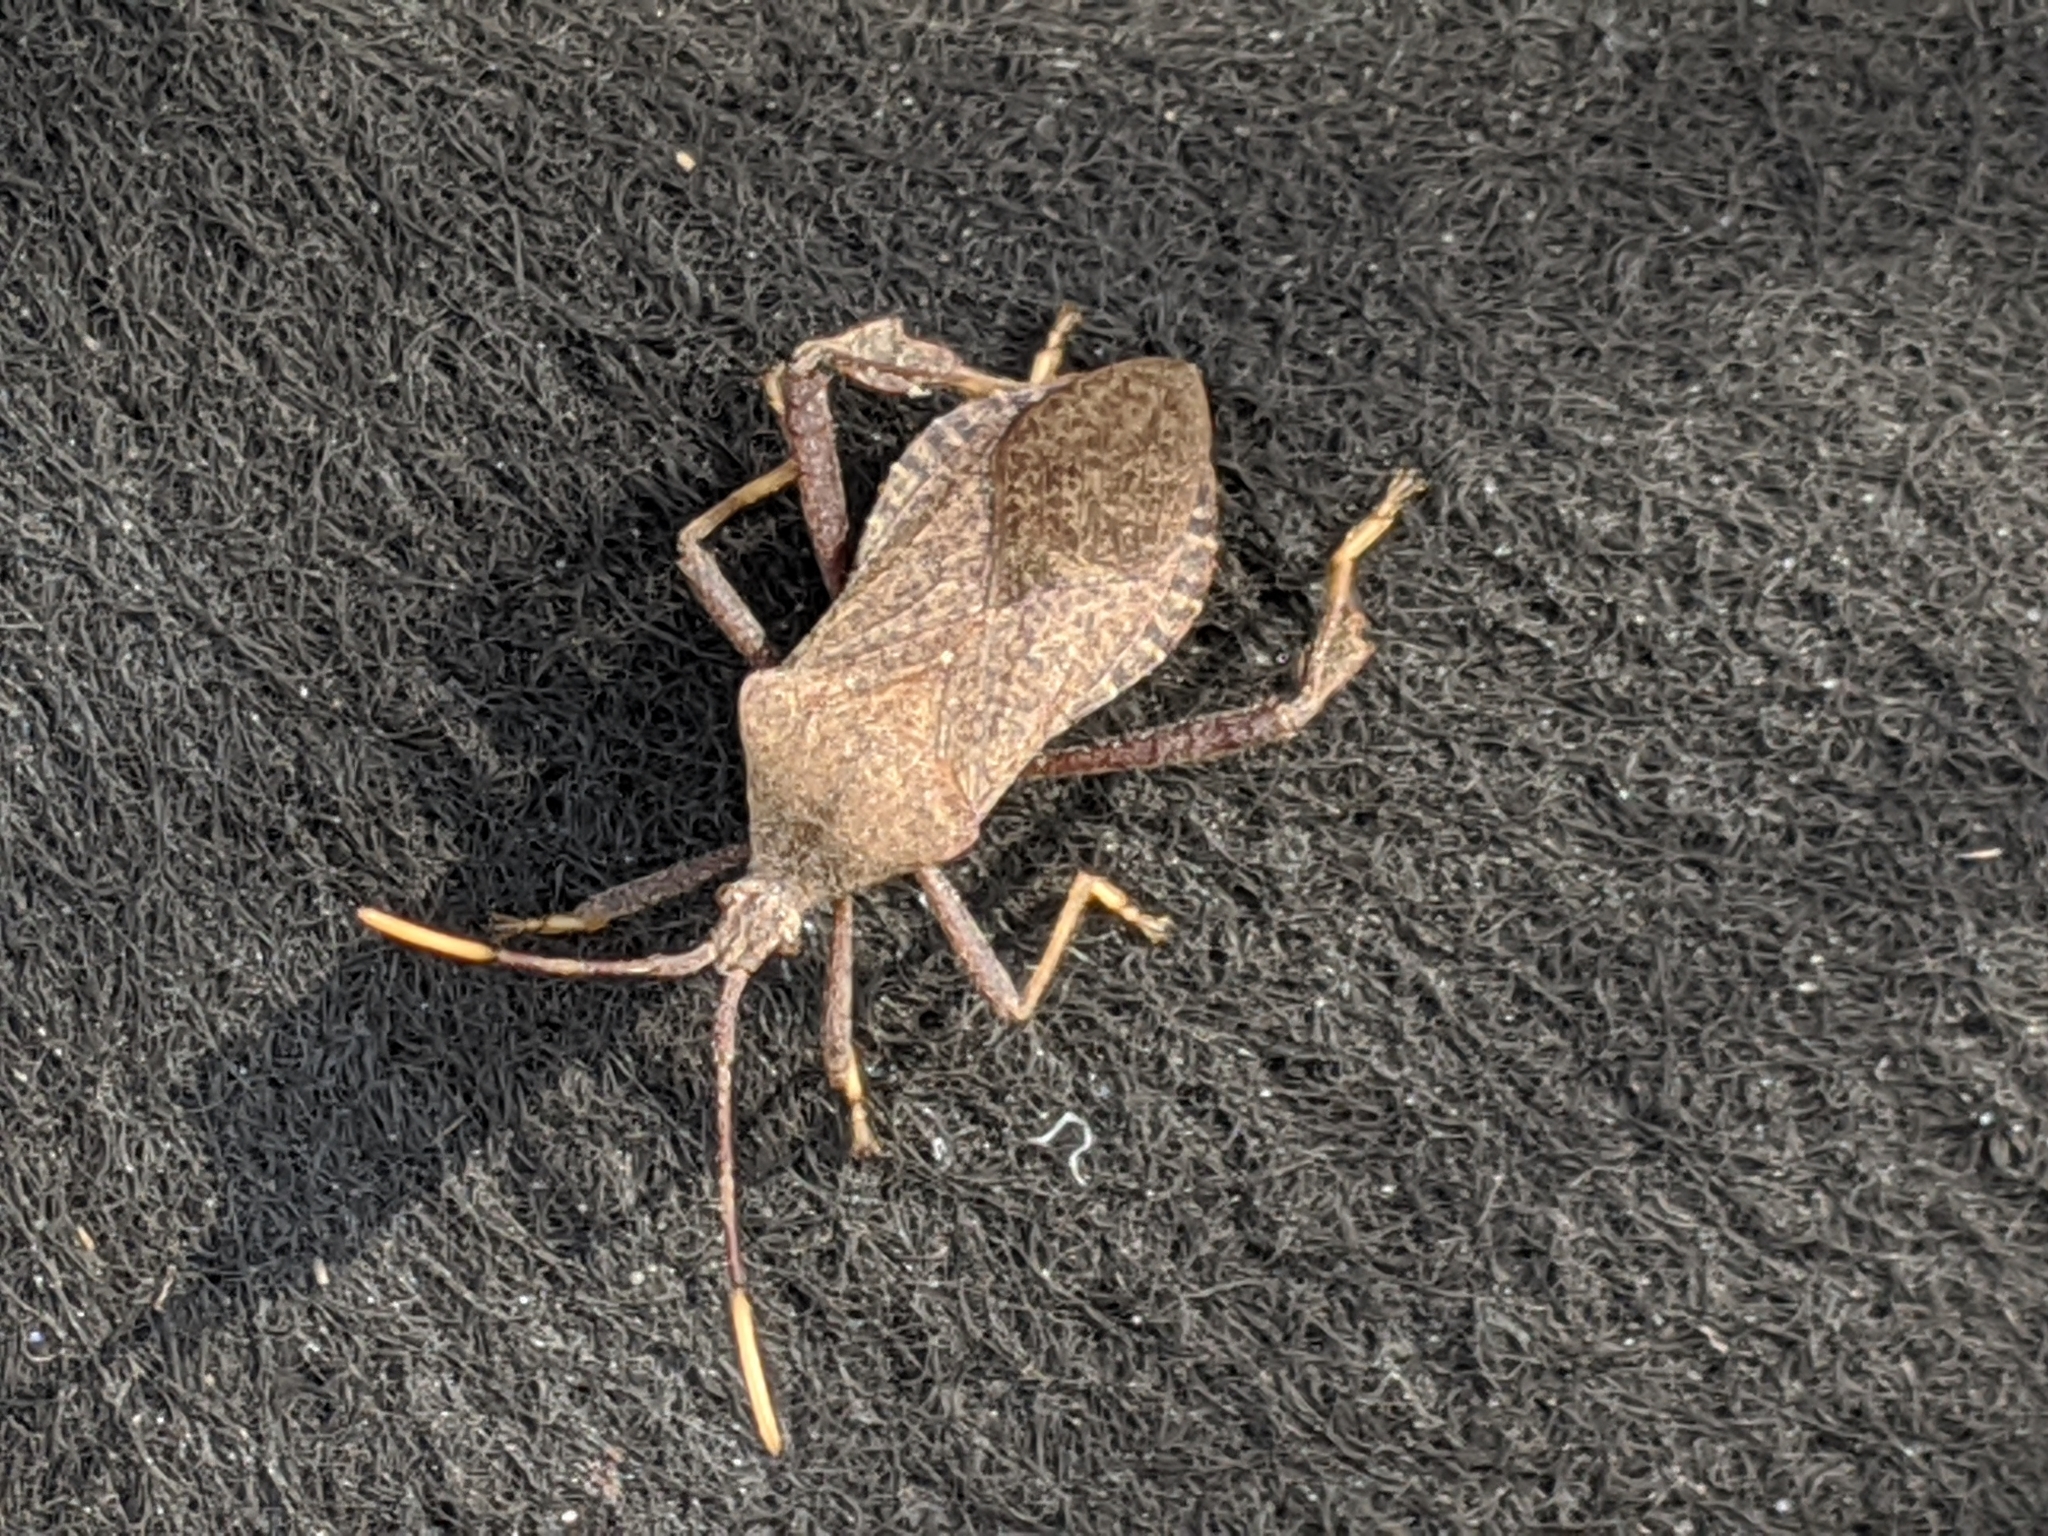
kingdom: Animalia
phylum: Arthropoda
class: Insecta
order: Hemiptera
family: Coreidae
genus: Acanthocephala
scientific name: Acanthocephala terminalis
